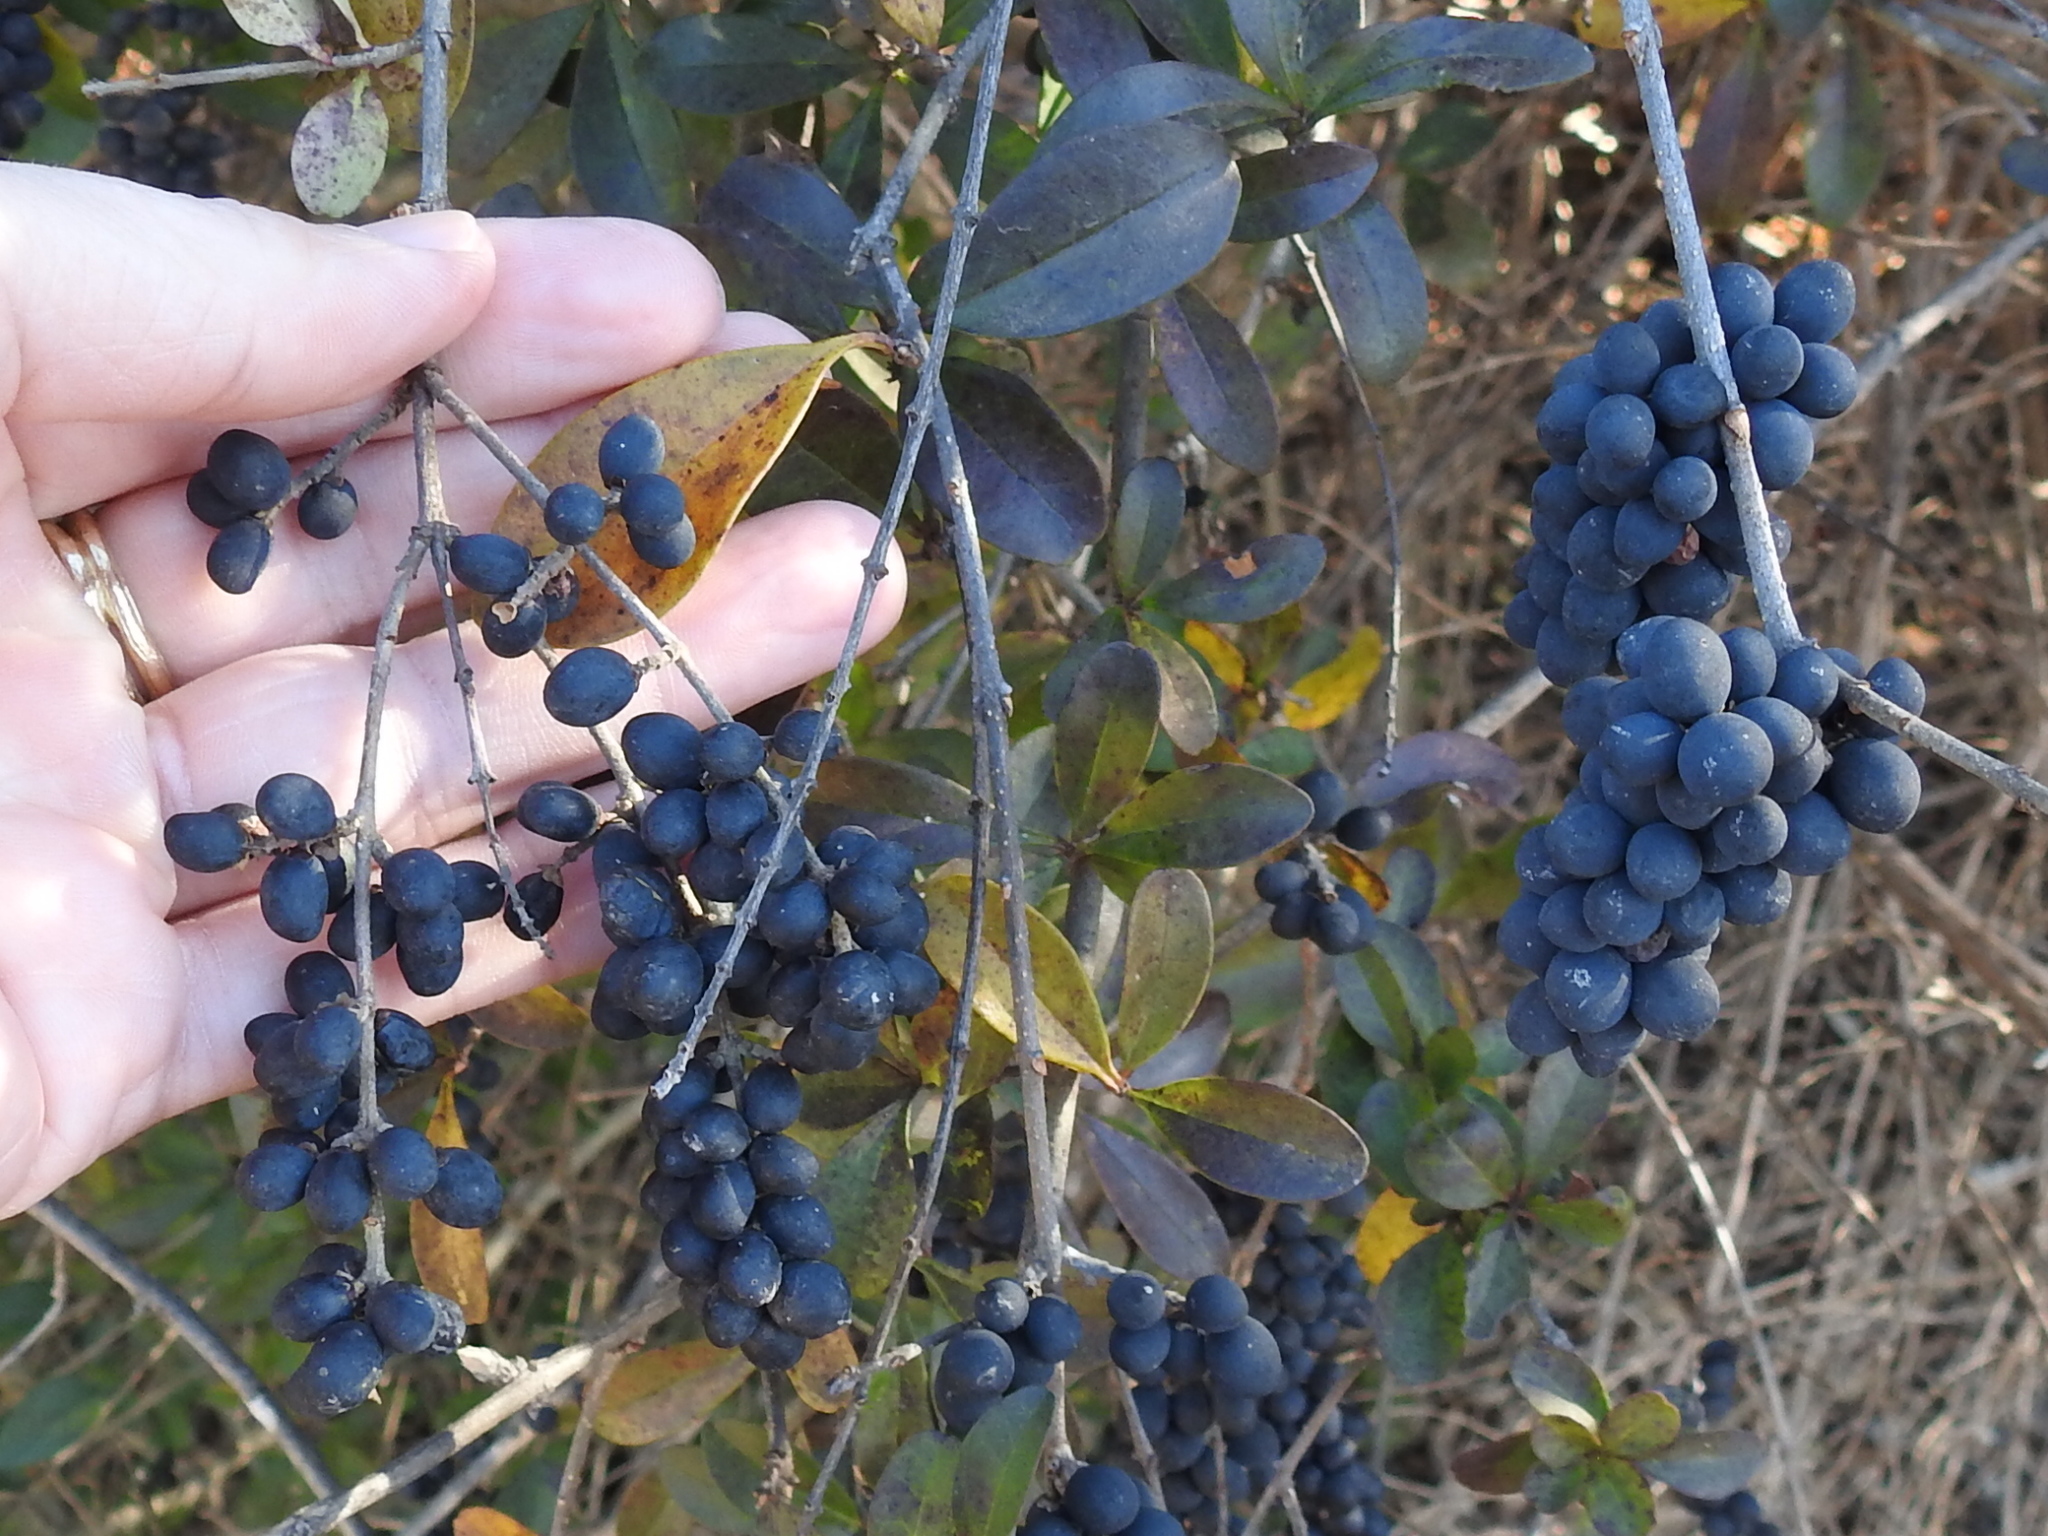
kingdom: Plantae
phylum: Tracheophyta
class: Magnoliopsida
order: Lamiales
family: Oleaceae
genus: Ligustrum
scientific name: Ligustrum quihoui
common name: Waxyleaf privet
